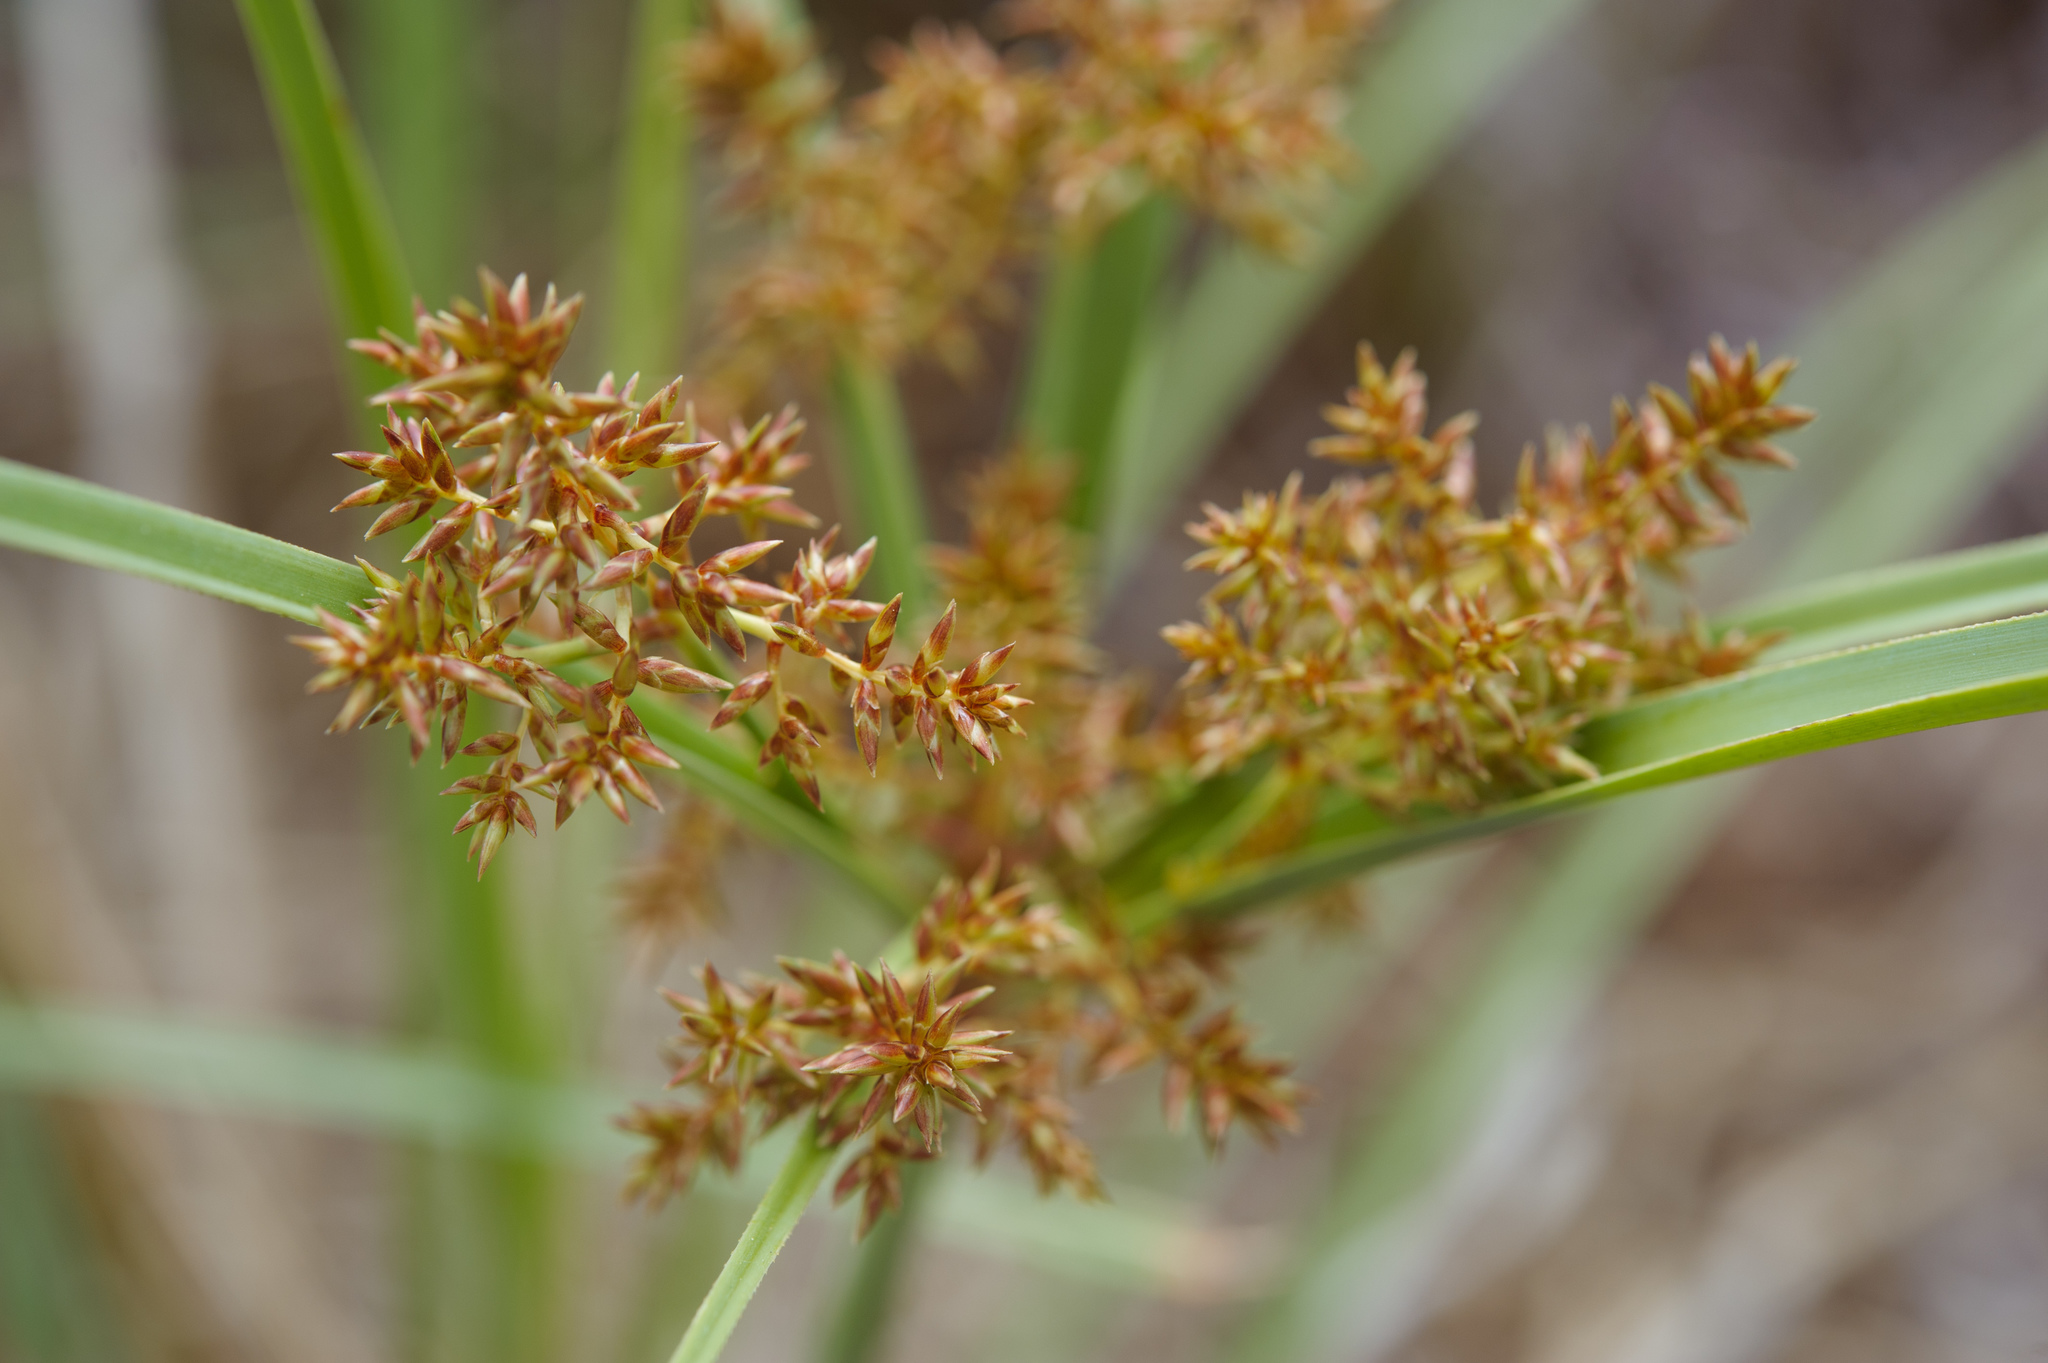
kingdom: Plantae
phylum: Tracheophyta
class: Liliopsida
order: Poales
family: Cyperaceae
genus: Cyperus
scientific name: Cyperus javanicus
